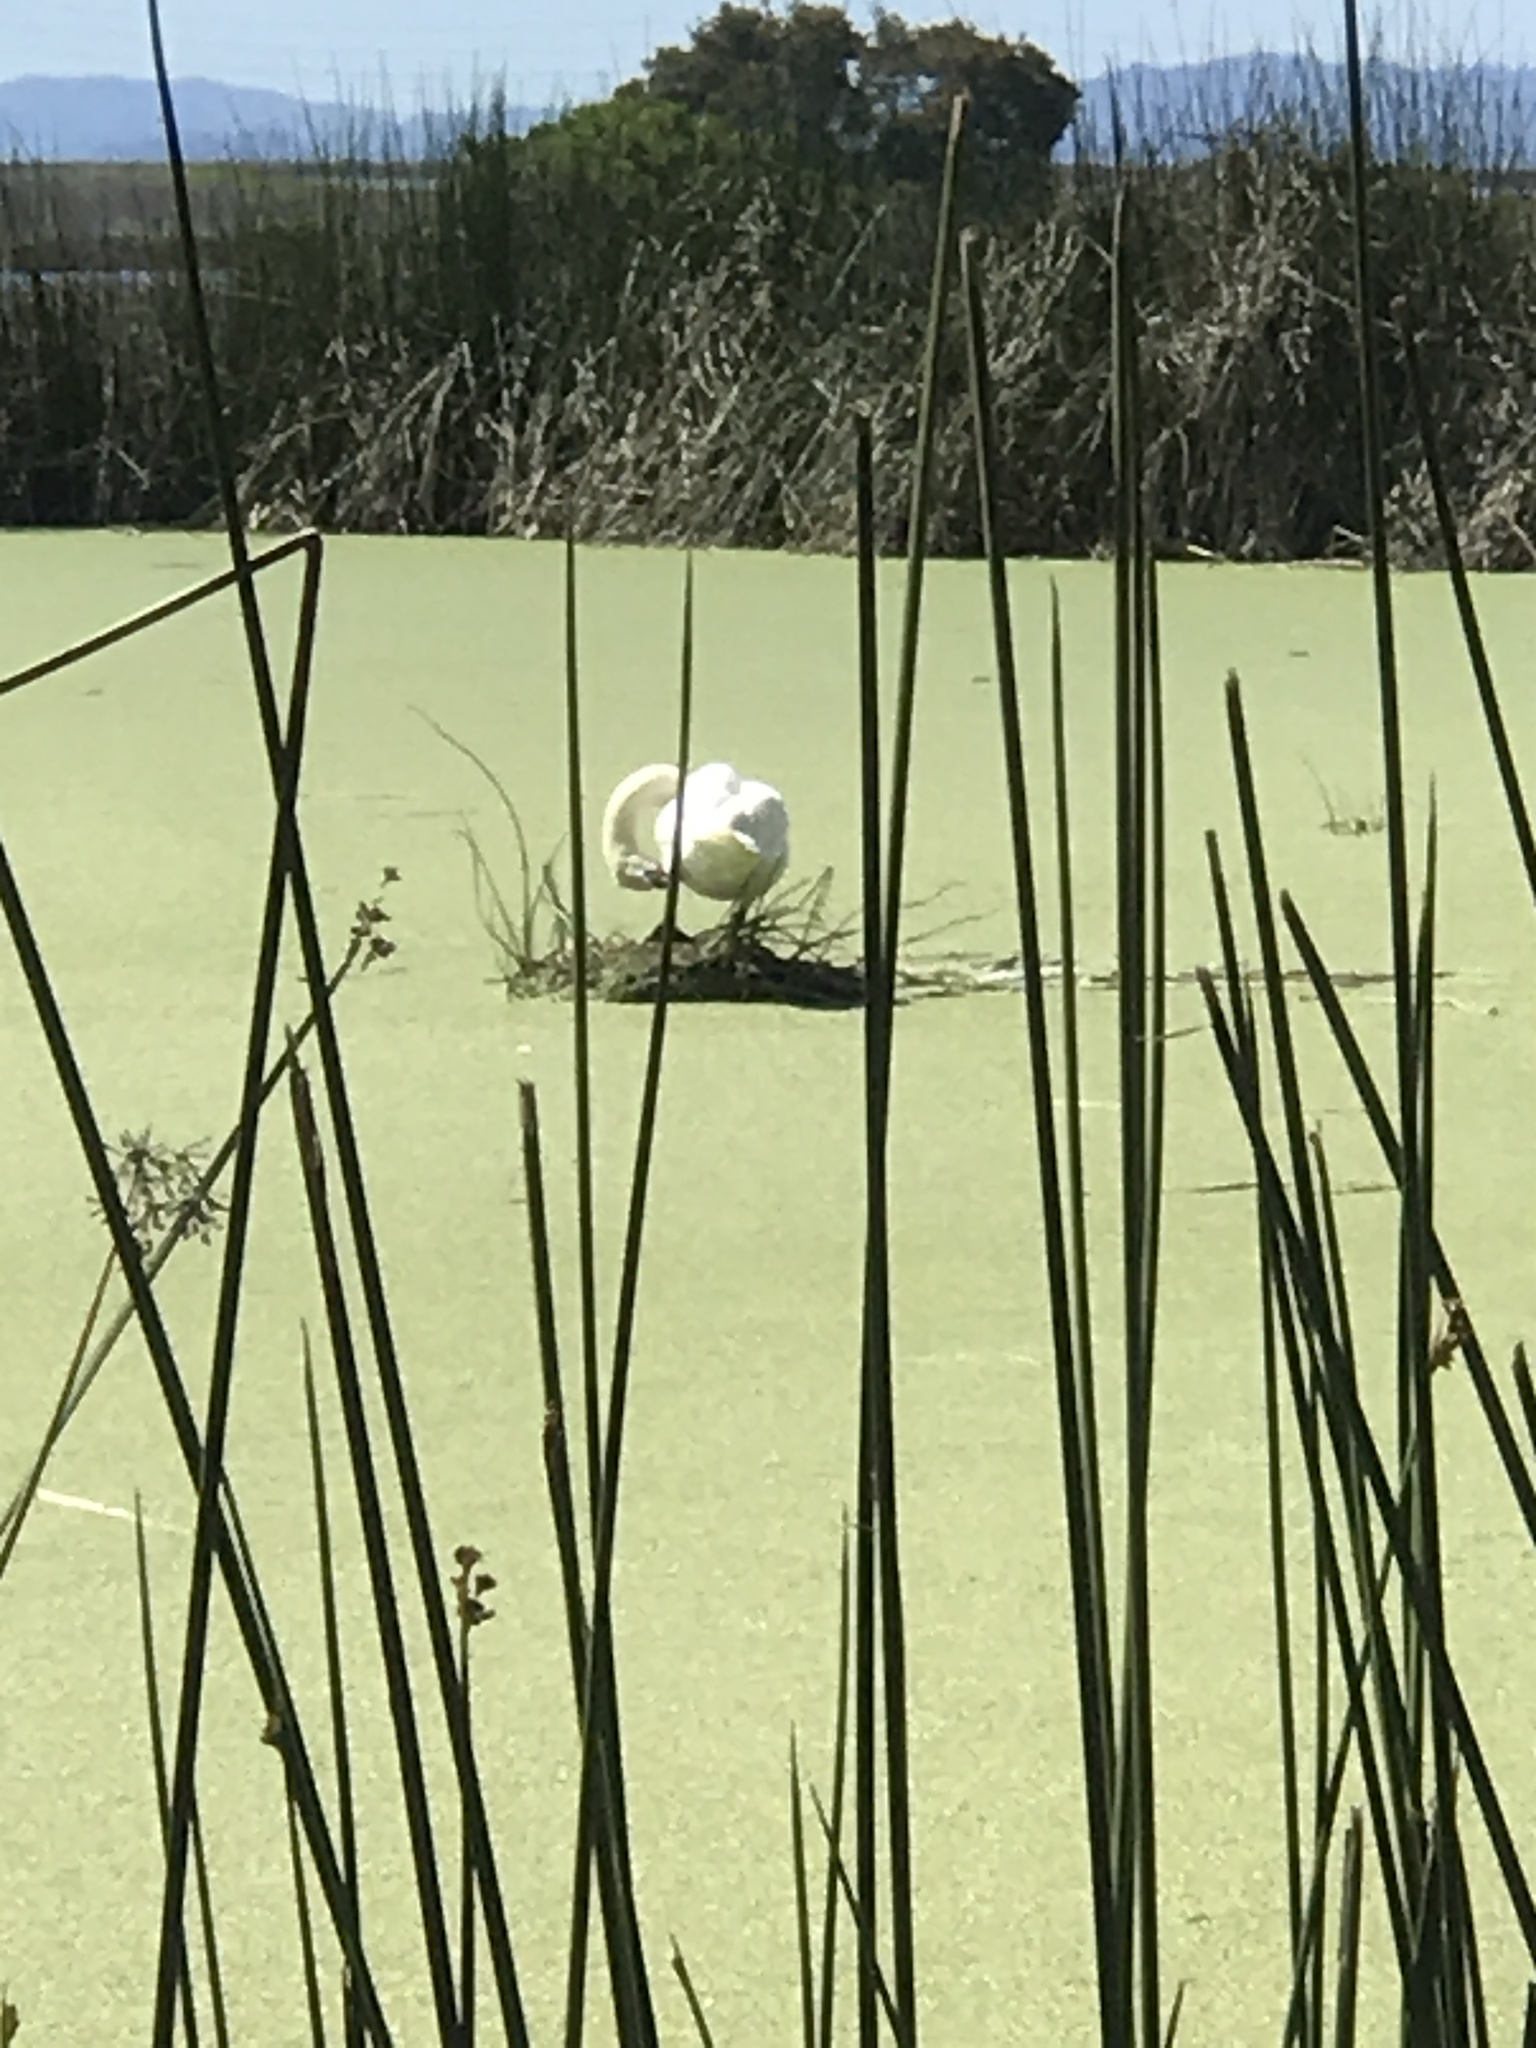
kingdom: Animalia
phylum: Chordata
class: Aves
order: Anseriformes
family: Anatidae
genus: Cygnus
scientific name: Cygnus olor
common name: Mute swan
